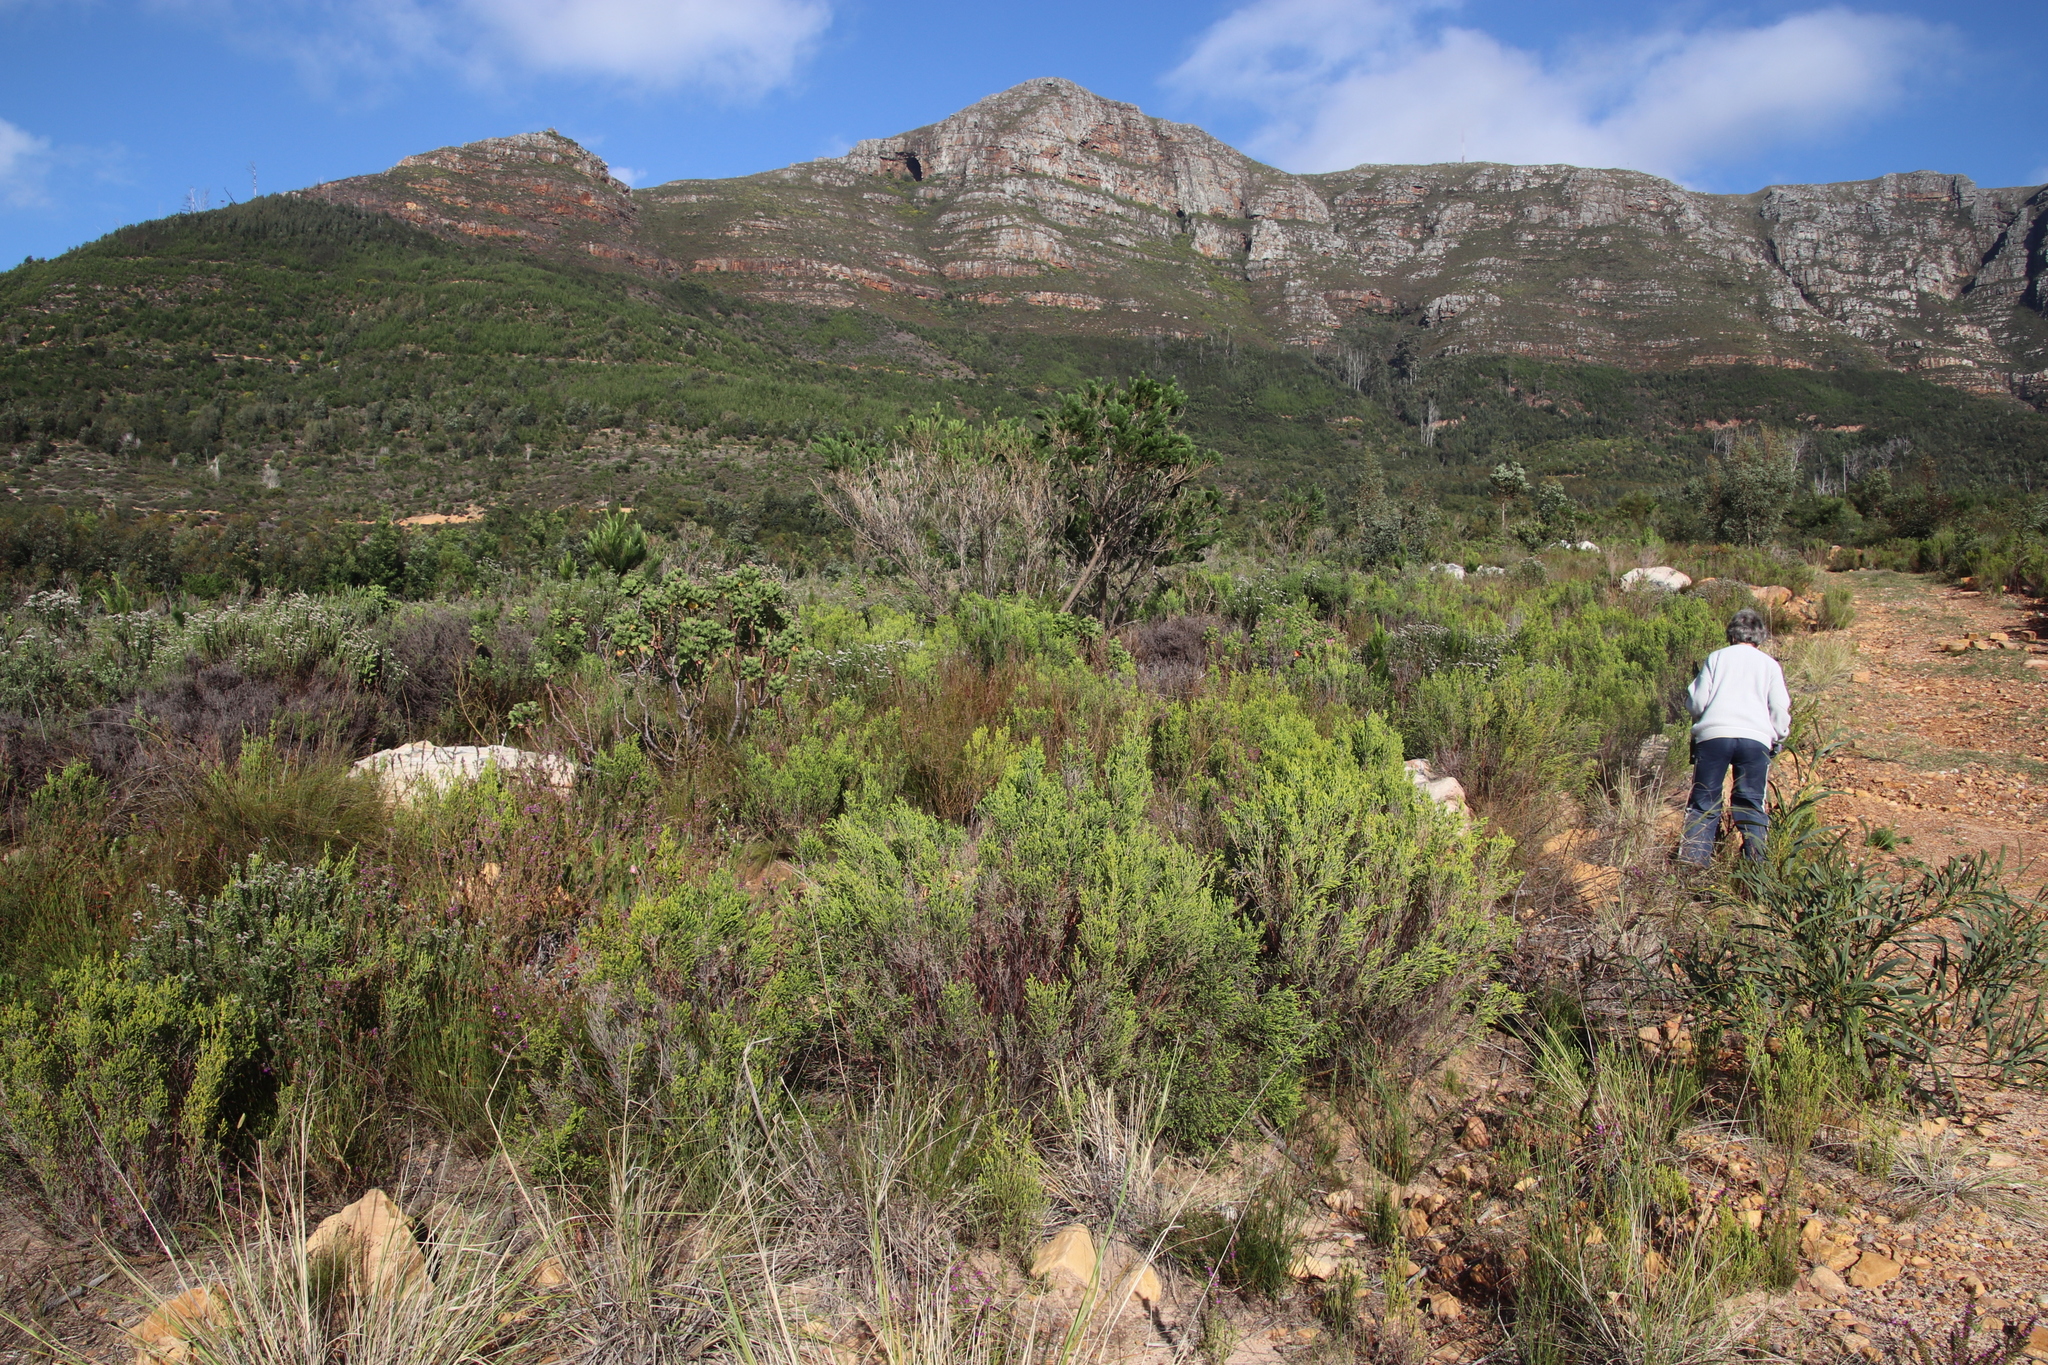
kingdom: Plantae
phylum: Tracheophyta
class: Magnoliopsida
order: Malvales
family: Thymelaeaceae
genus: Passerina
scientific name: Passerina corymbosa
